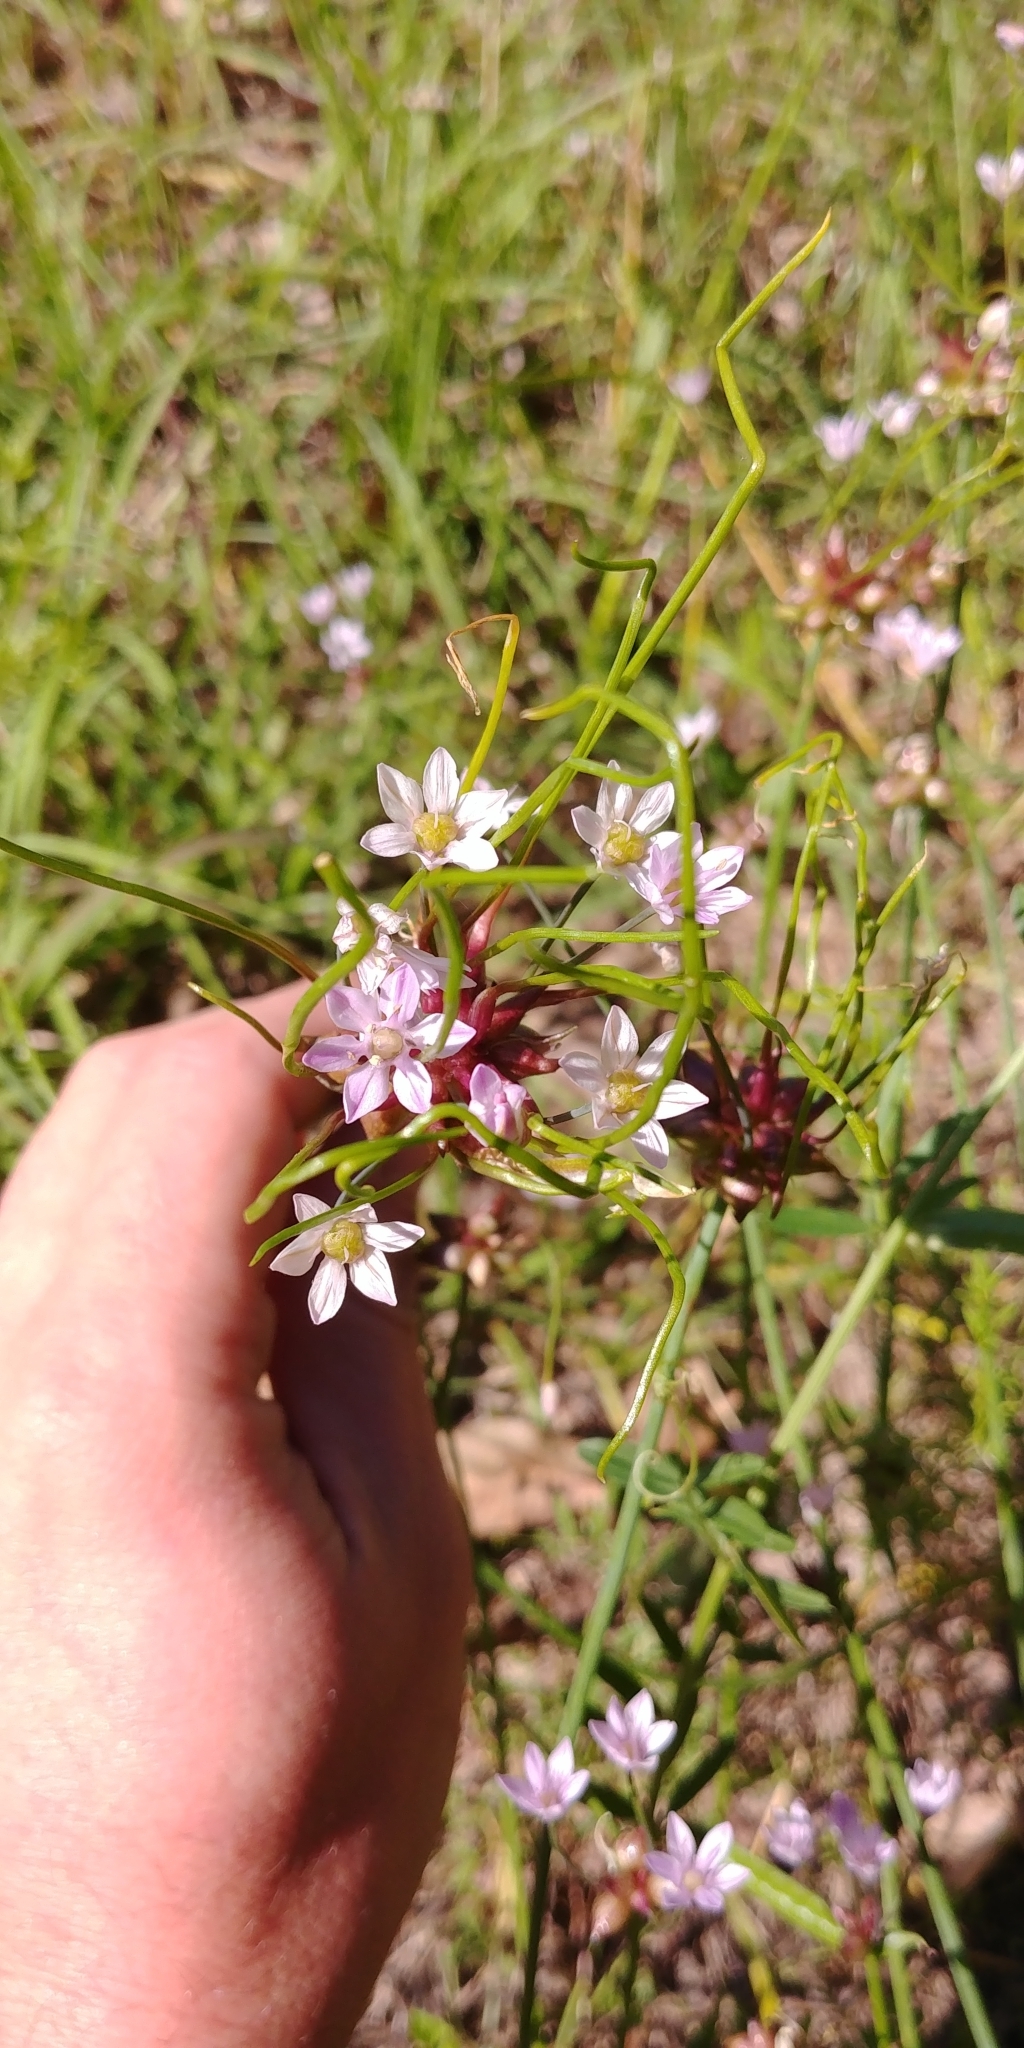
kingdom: Plantae
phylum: Tracheophyta
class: Liliopsida
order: Asparagales
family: Amaryllidaceae
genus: Allium
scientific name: Allium canadense
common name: Meadow garlic
